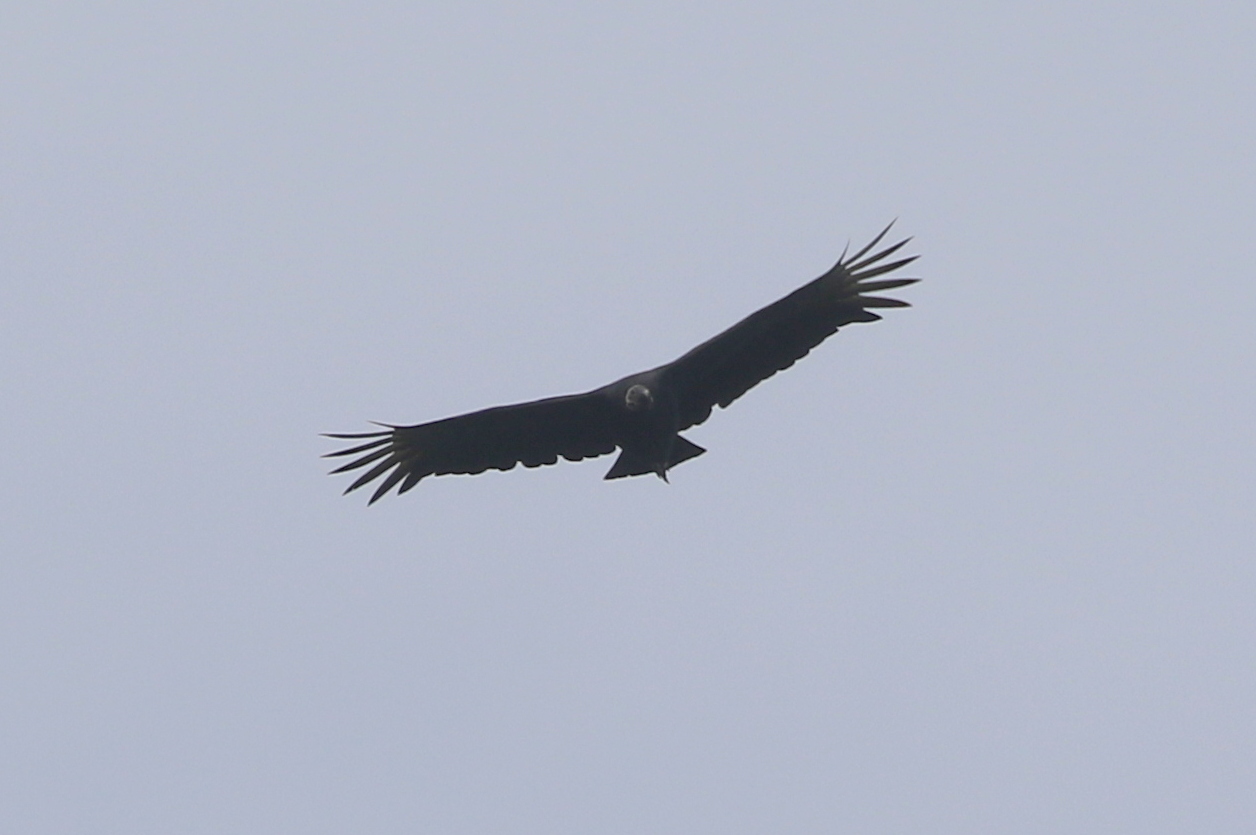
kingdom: Animalia
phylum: Chordata
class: Aves
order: Accipitriformes
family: Cathartidae
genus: Coragyps
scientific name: Coragyps atratus
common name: Black vulture
